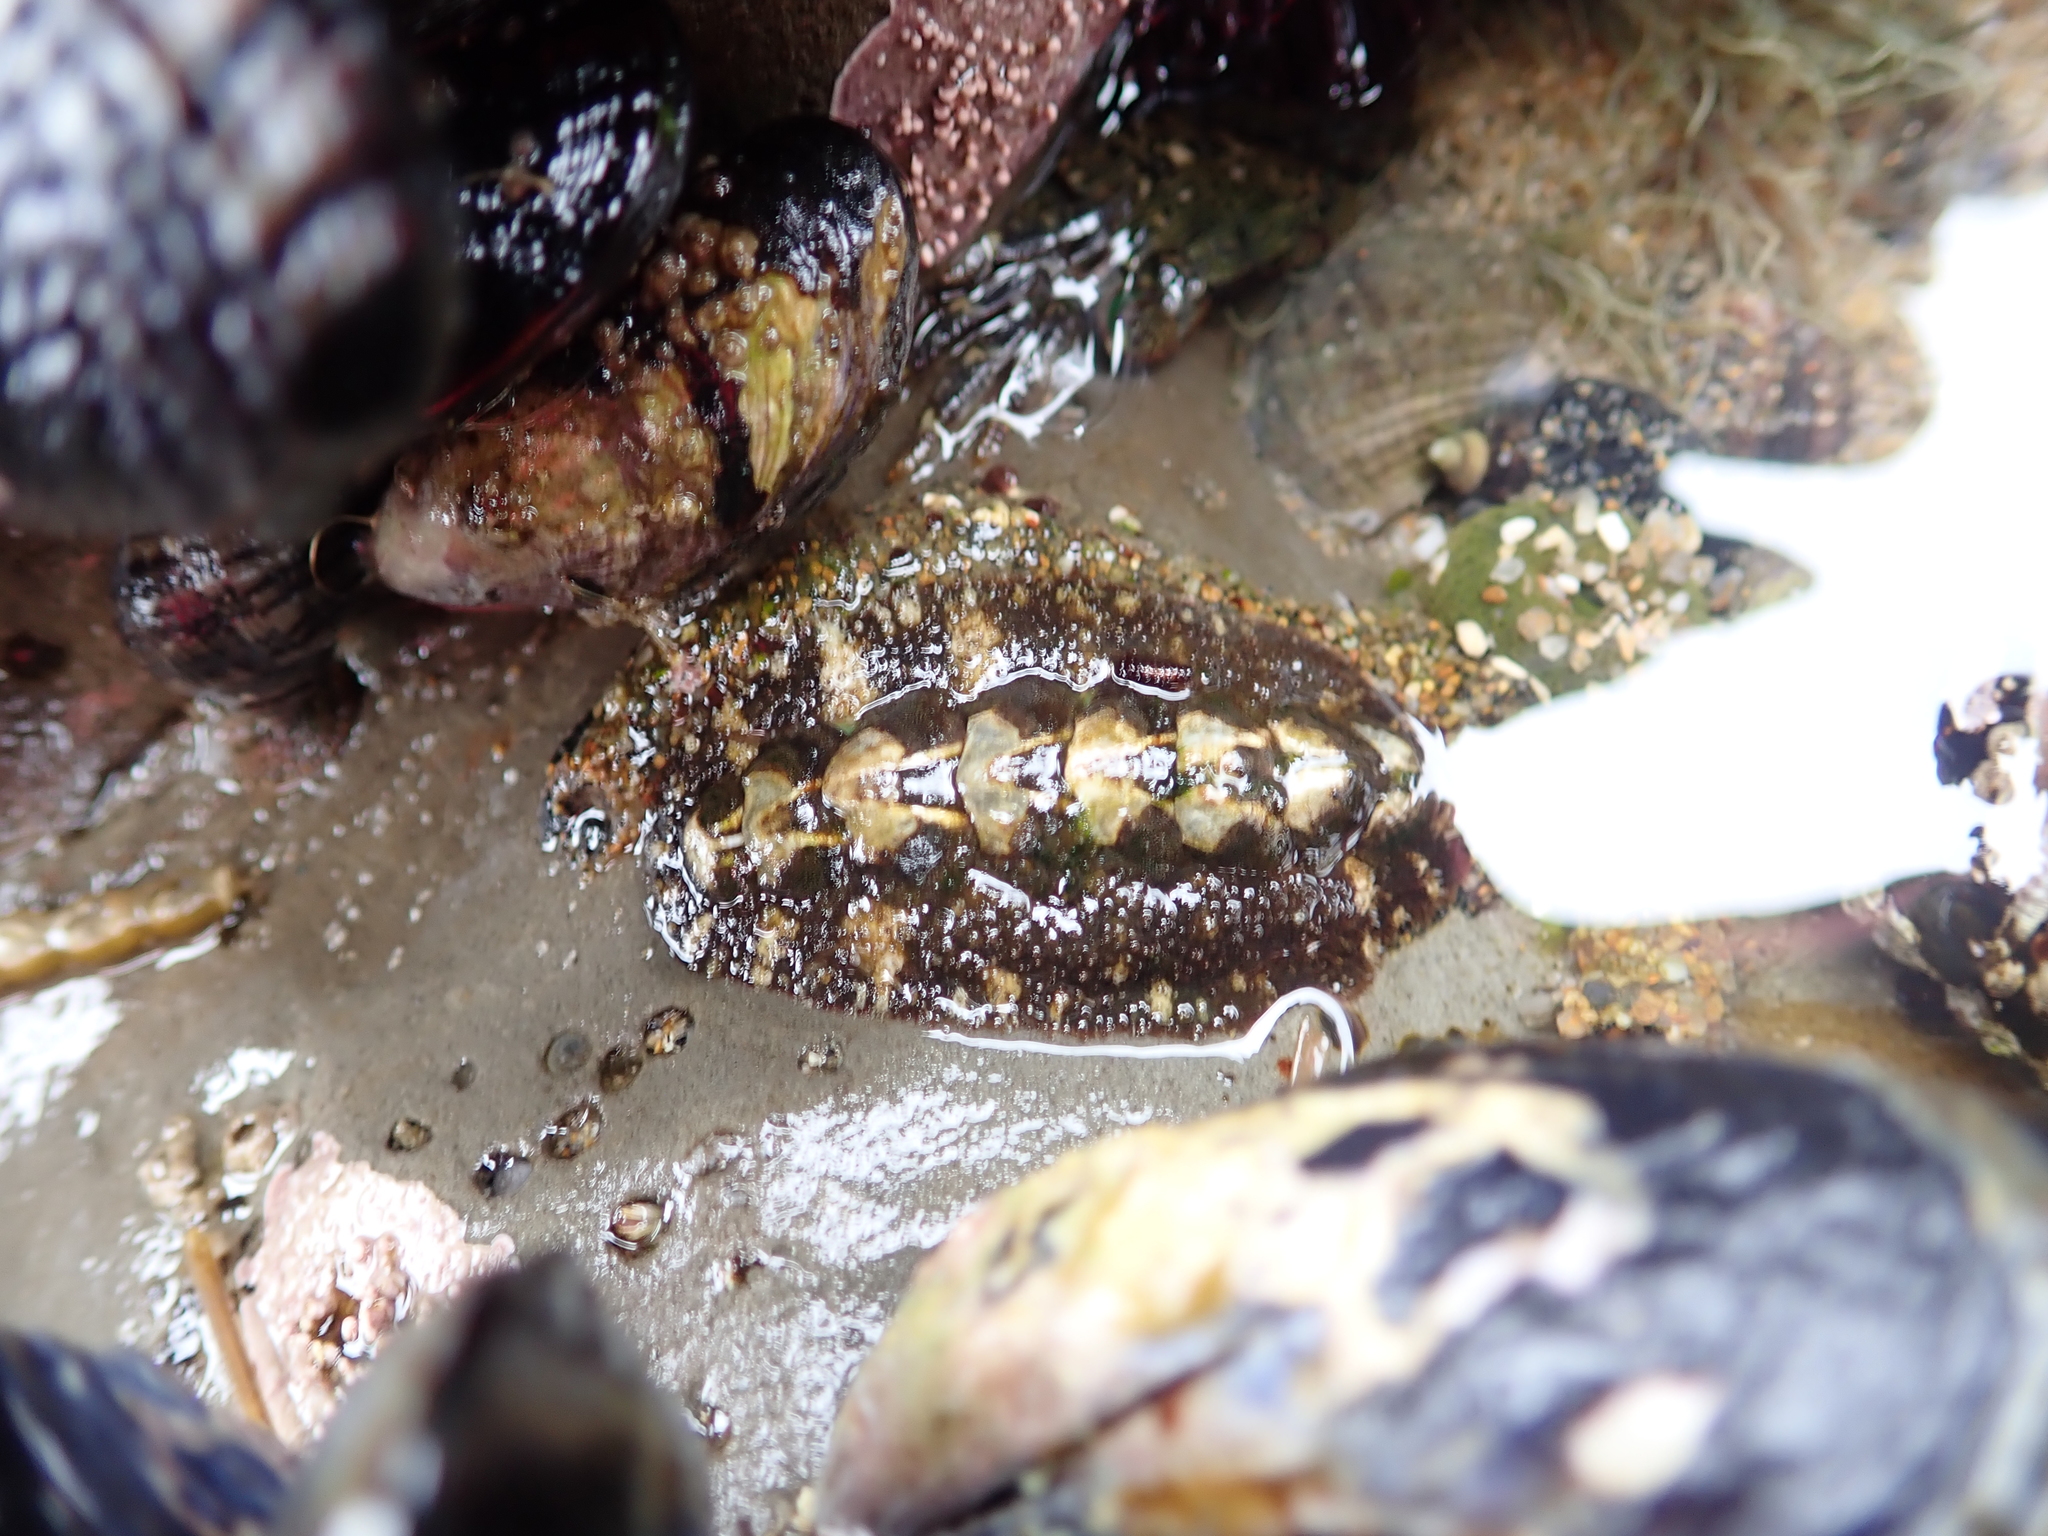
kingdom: Animalia
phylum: Mollusca
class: Polyplacophora
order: Chitonida
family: Tonicellidae
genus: Nuttallina
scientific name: Nuttallina californica
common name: California nuttall chiton
